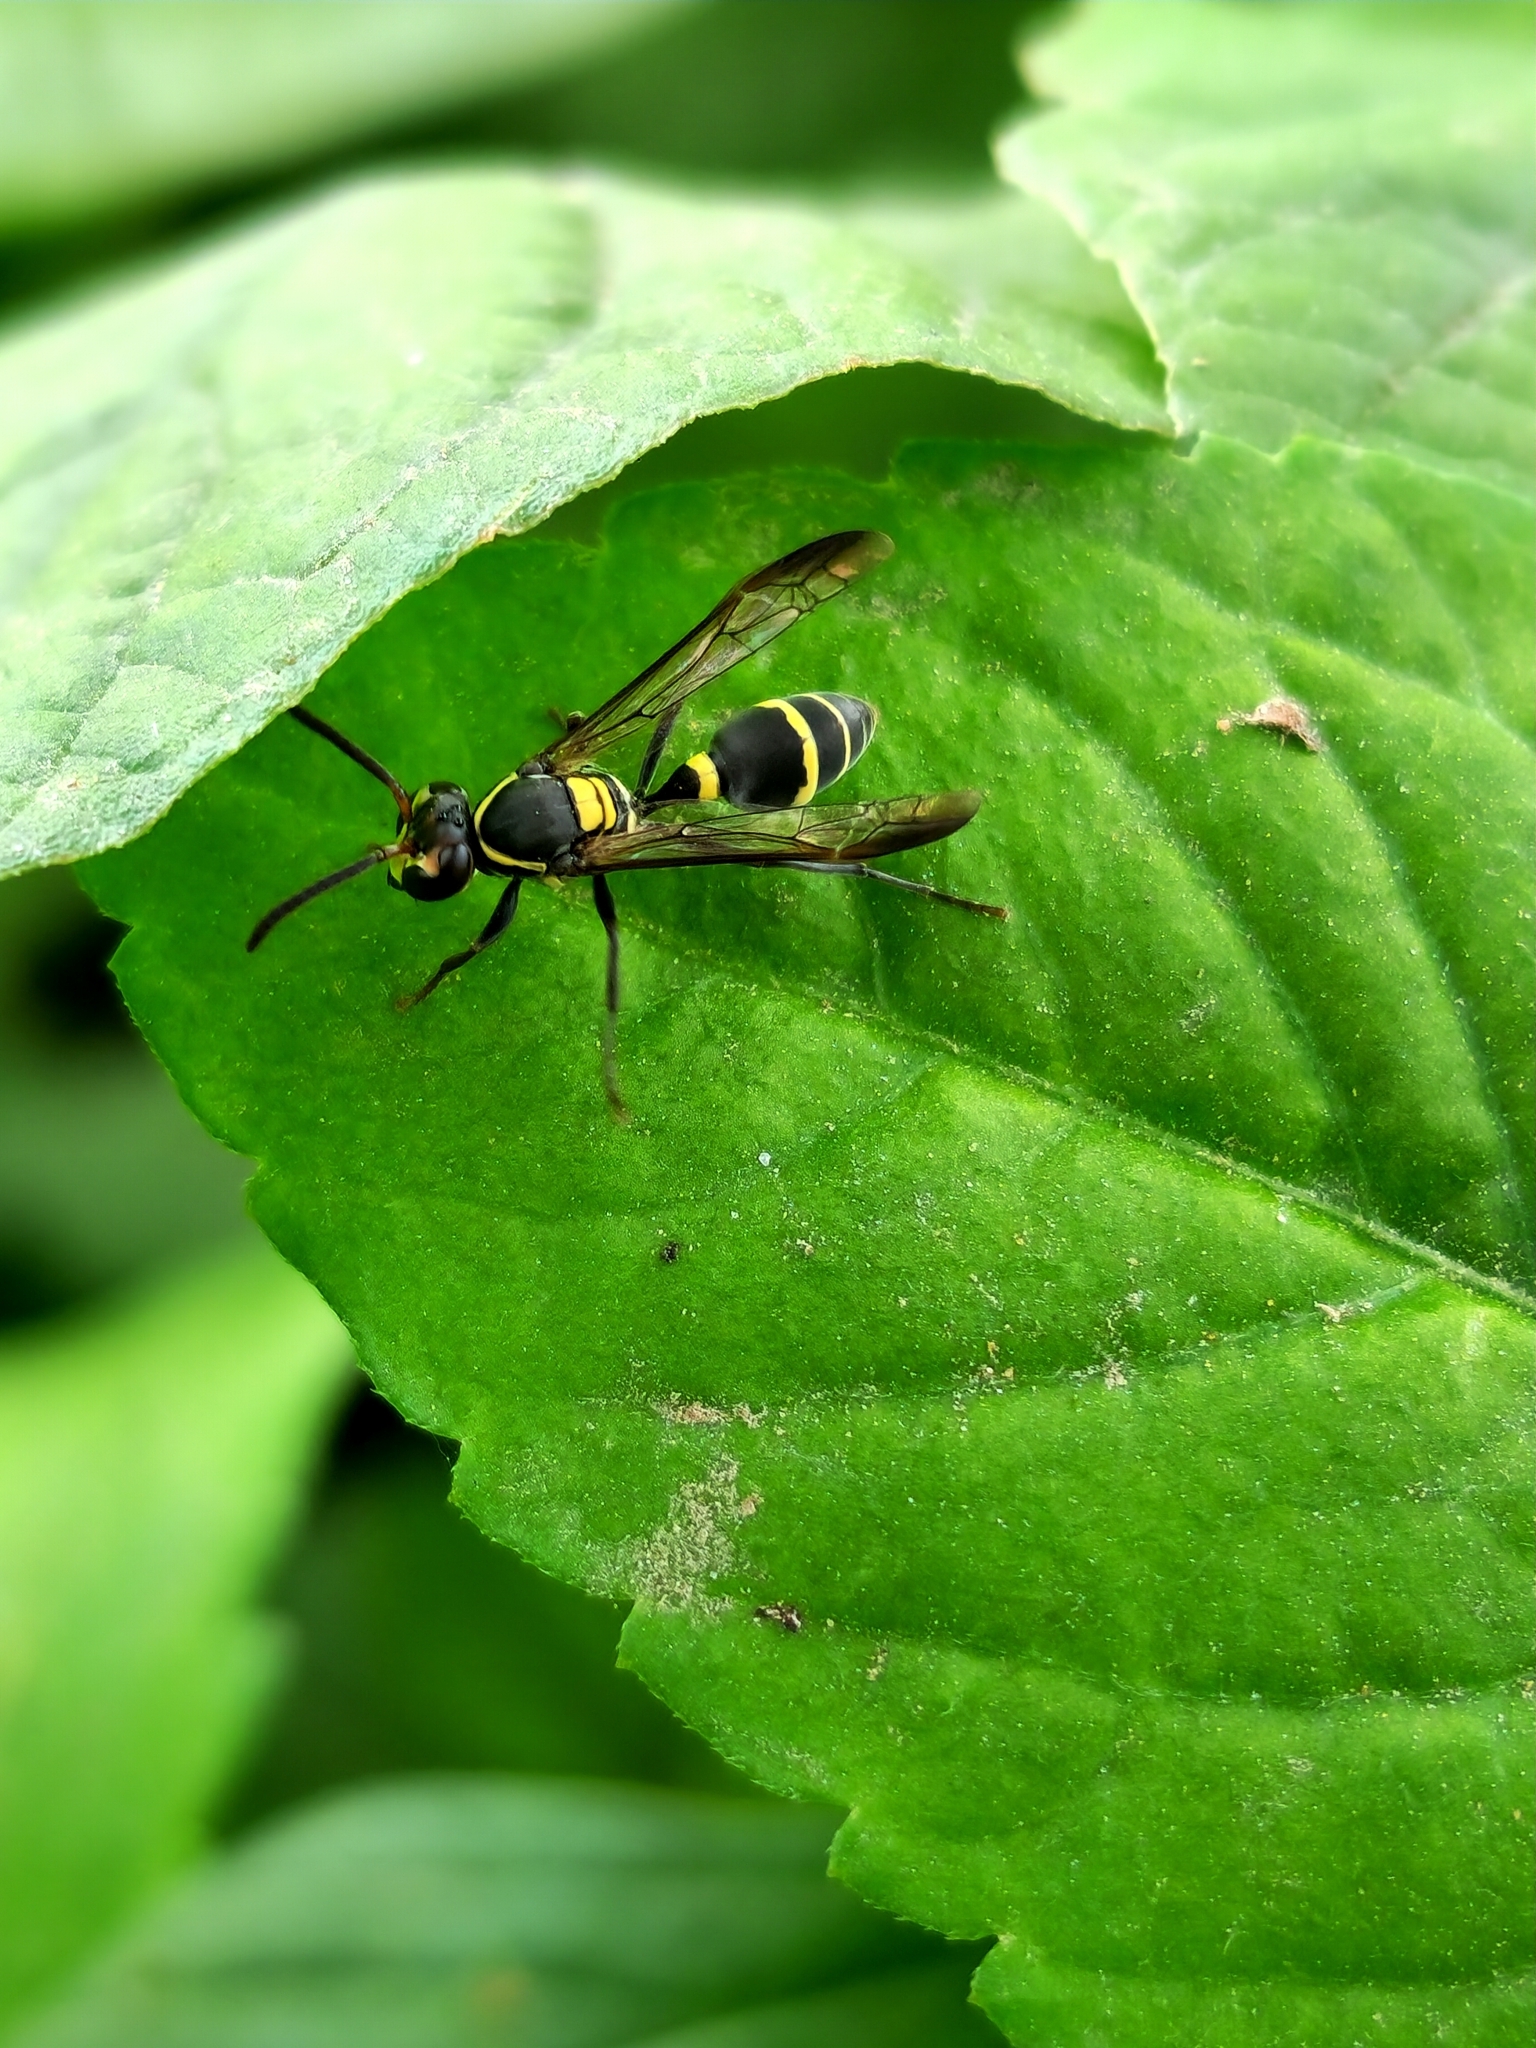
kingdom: Animalia
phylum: Arthropoda
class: Insecta
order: Hymenoptera
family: Eumenidae
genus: Polybia
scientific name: Polybia occidentalis
